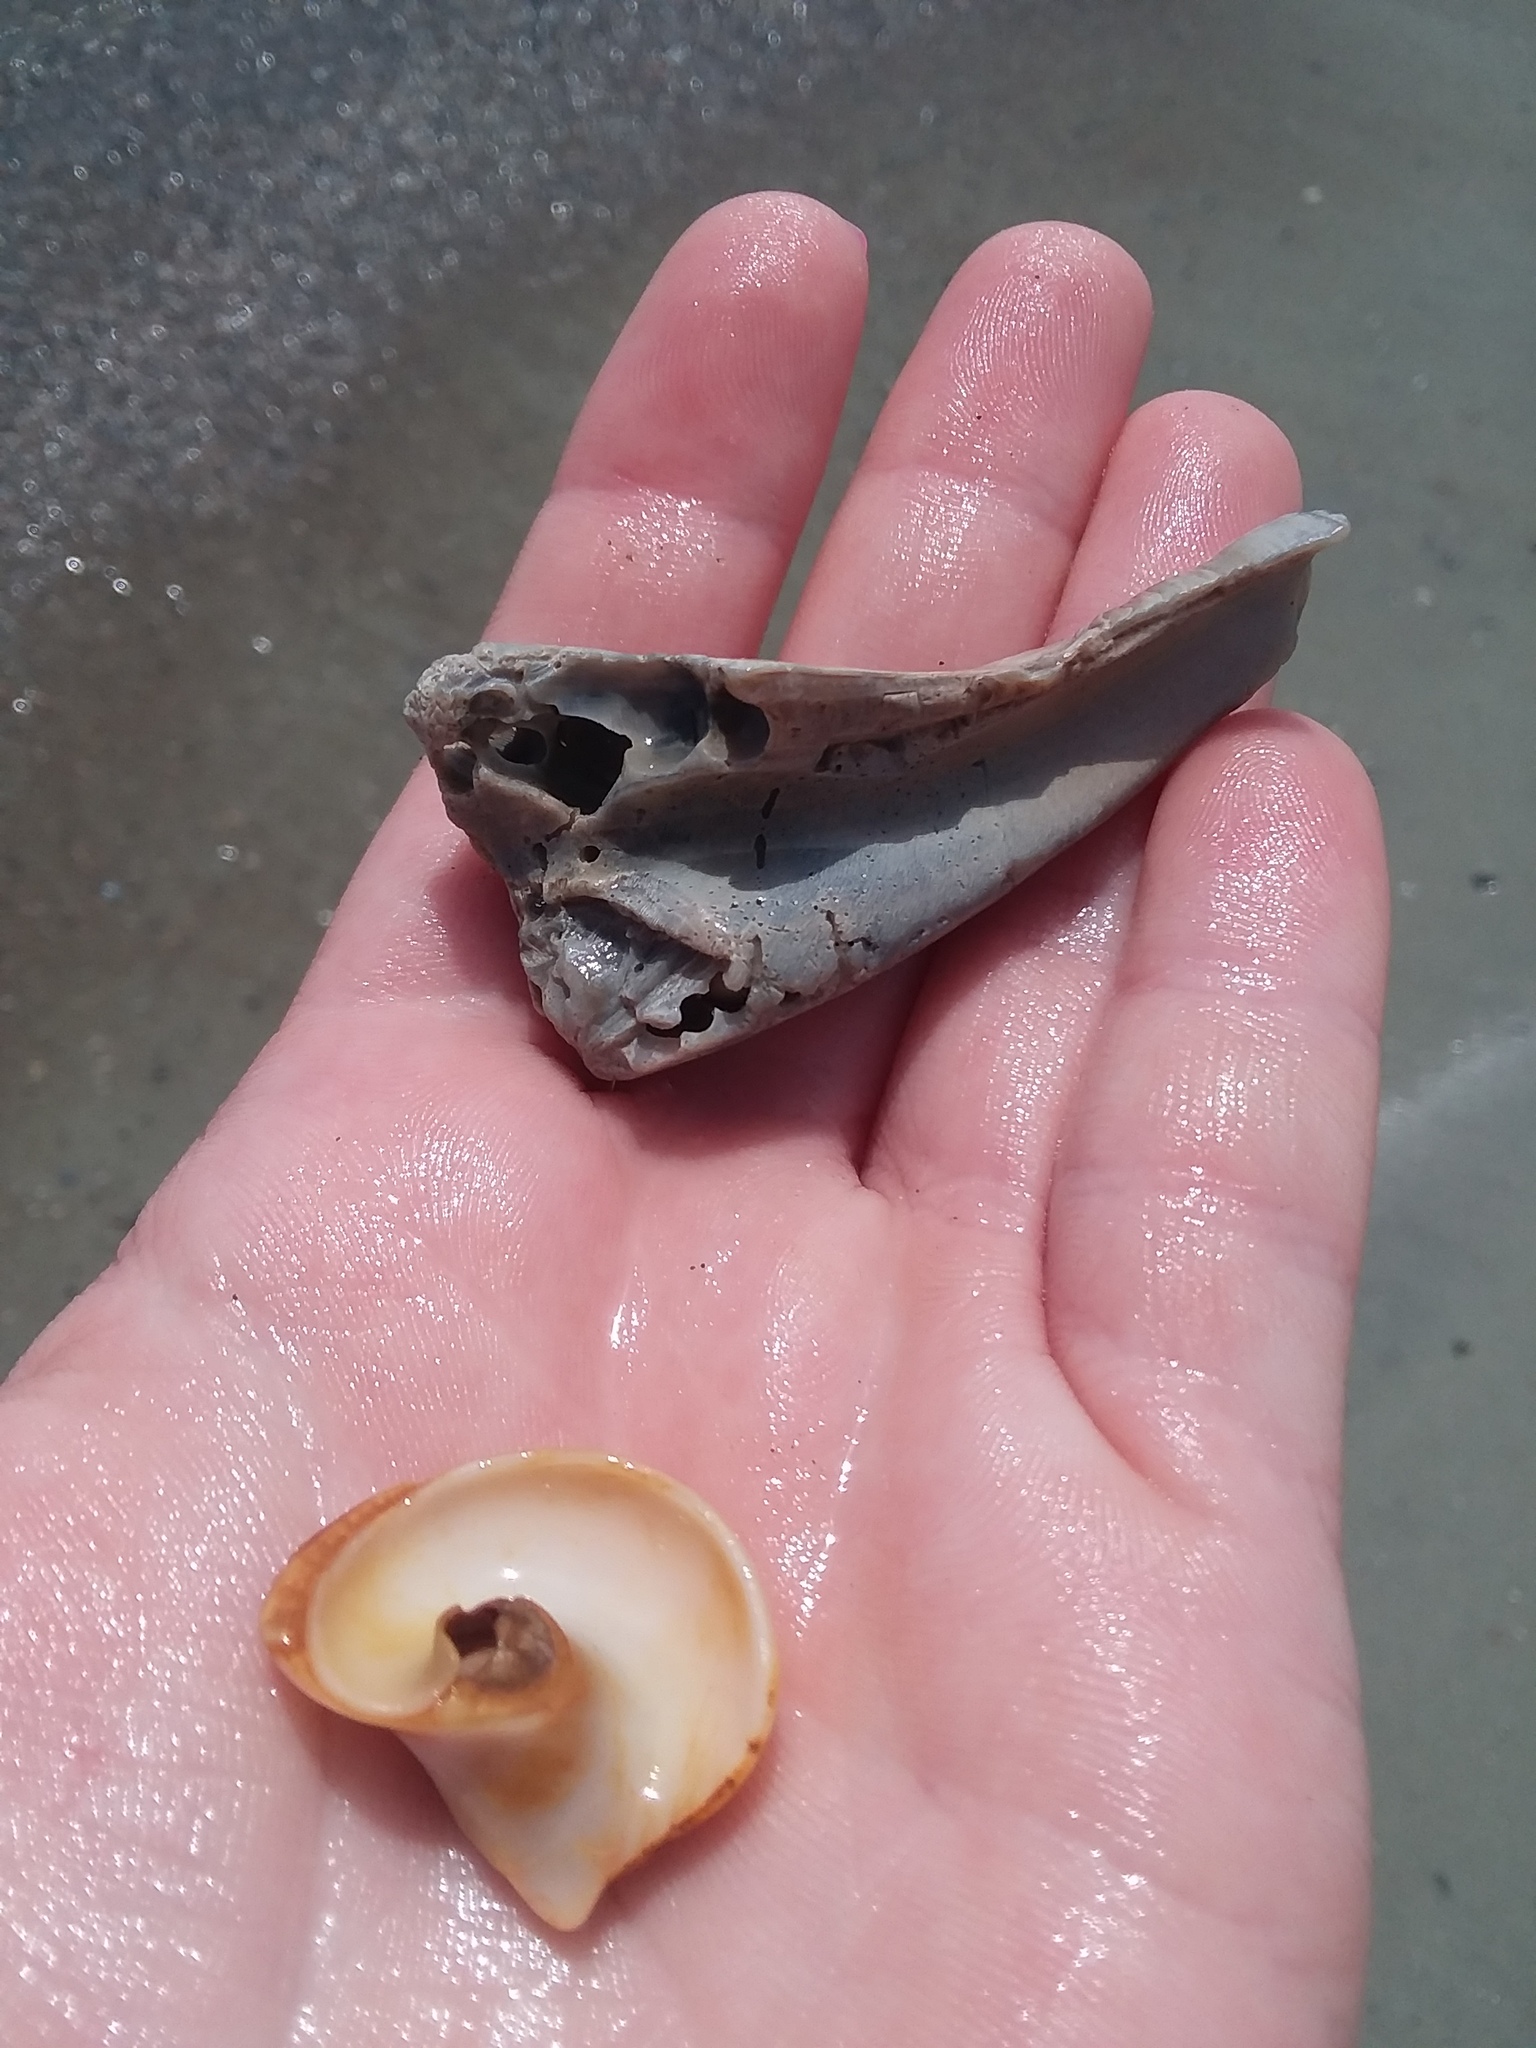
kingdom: Animalia
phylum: Mollusca
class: Gastropoda
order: Littorinimorpha
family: Naticidae
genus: Neverita
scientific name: Neverita duplicata
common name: Lobed moonsnail
